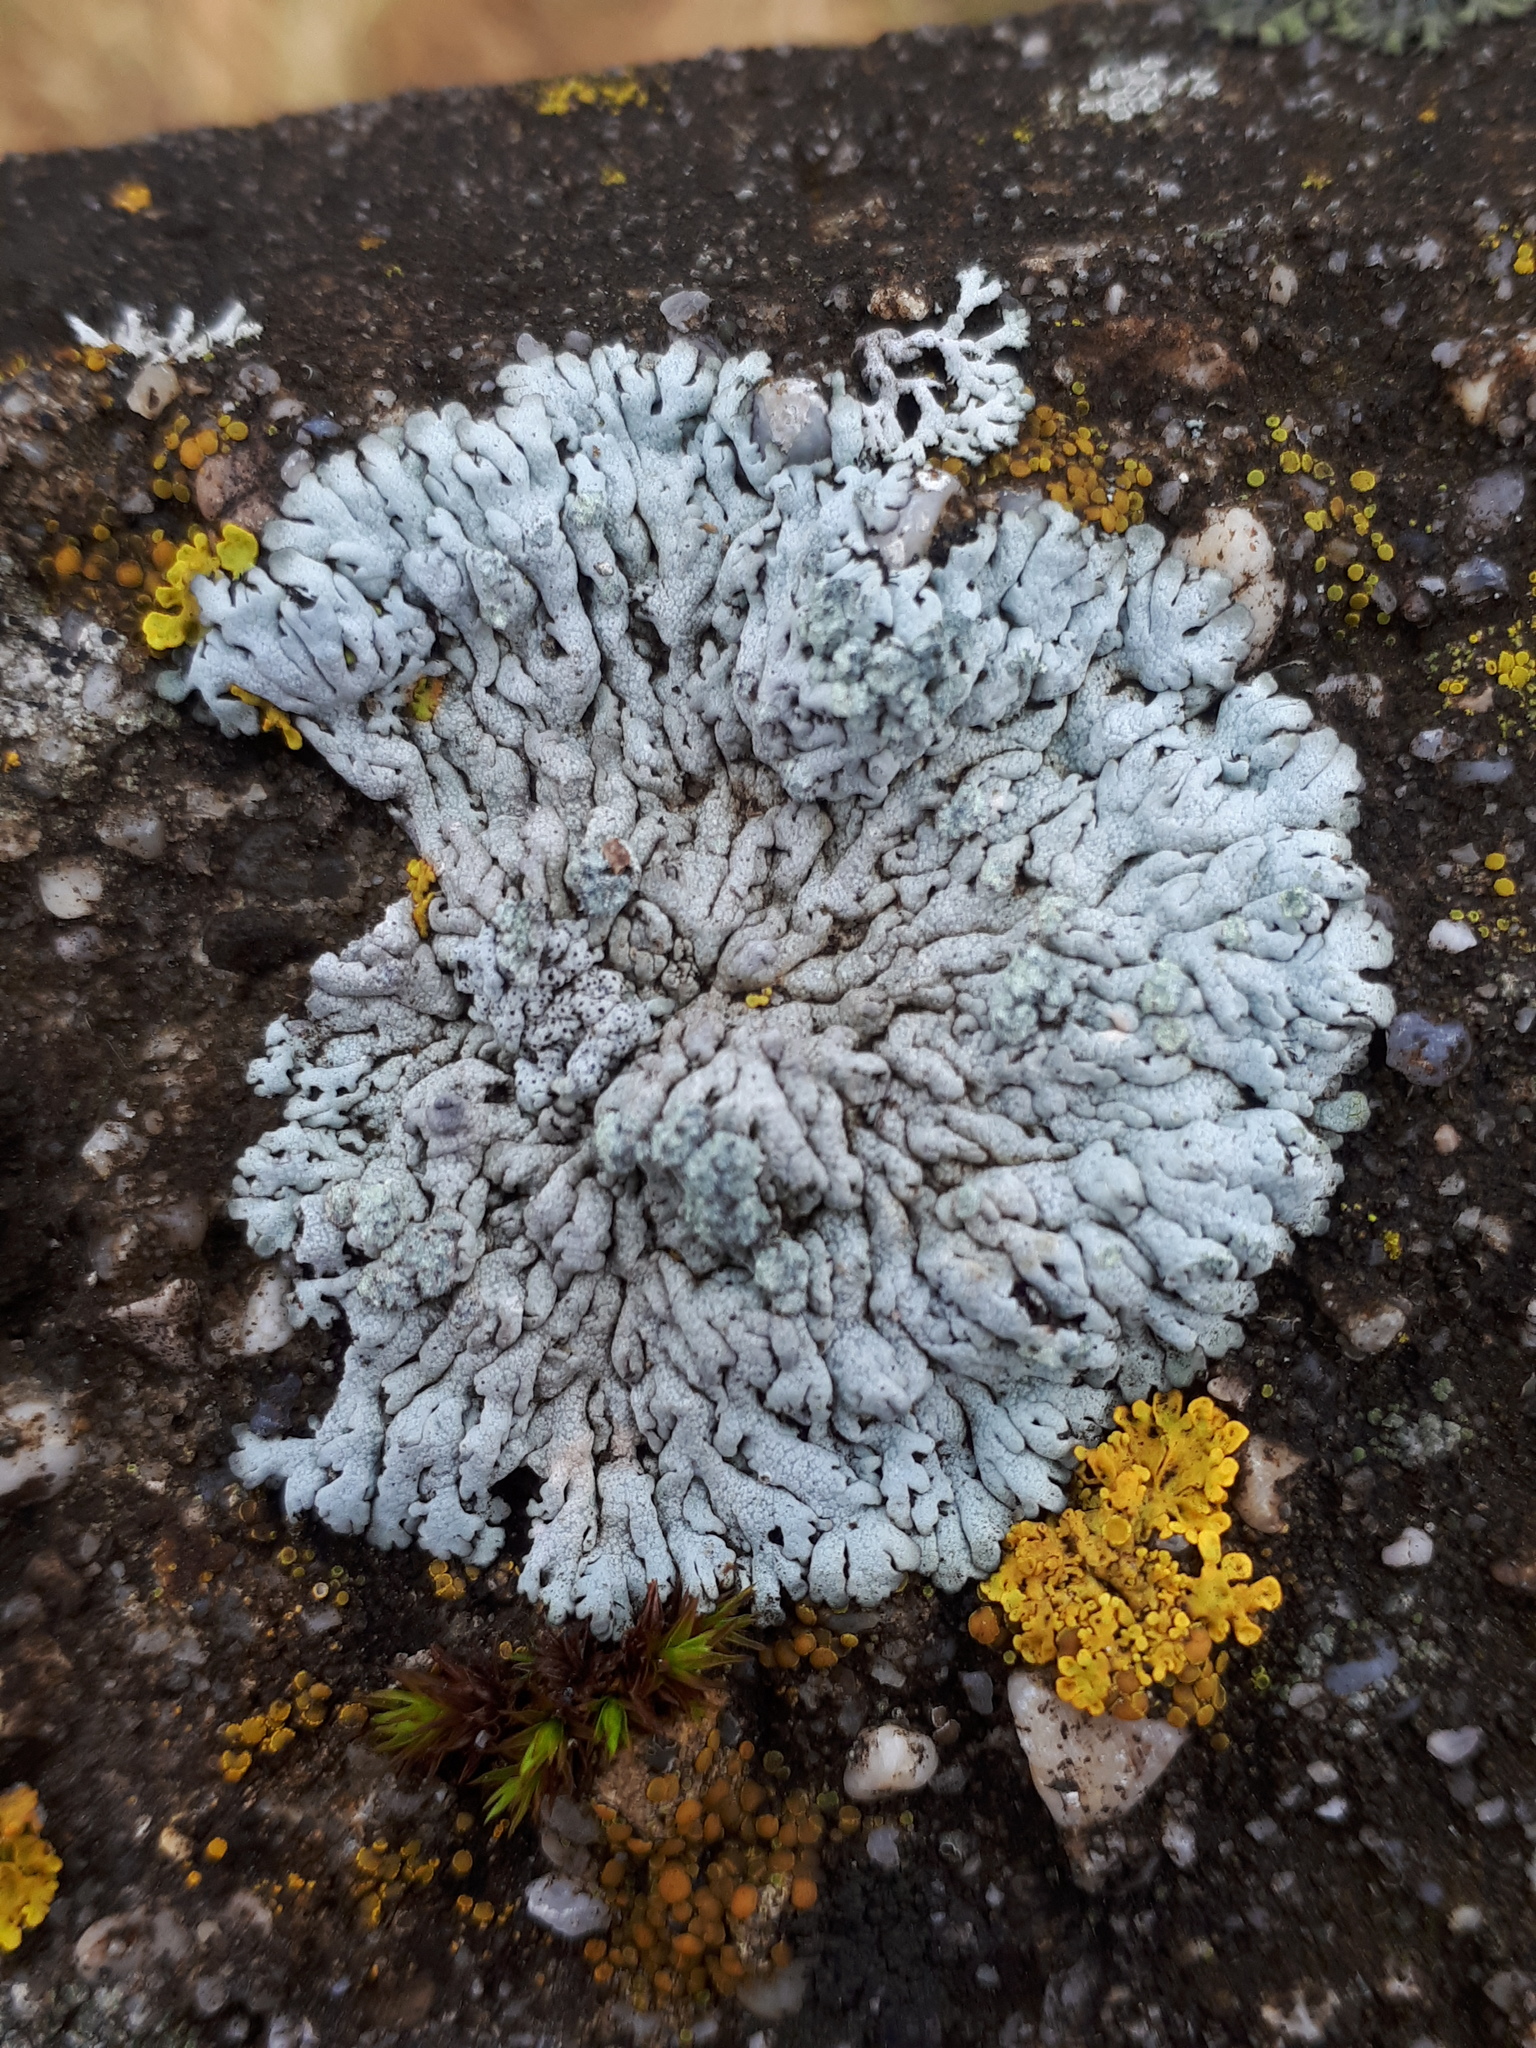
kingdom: Fungi
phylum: Ascomycota
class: Lecanoromycetes
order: Caliciales
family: Physciaceae
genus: Physcia
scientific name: Physcia caesia
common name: Blue-gray rosette lichen
